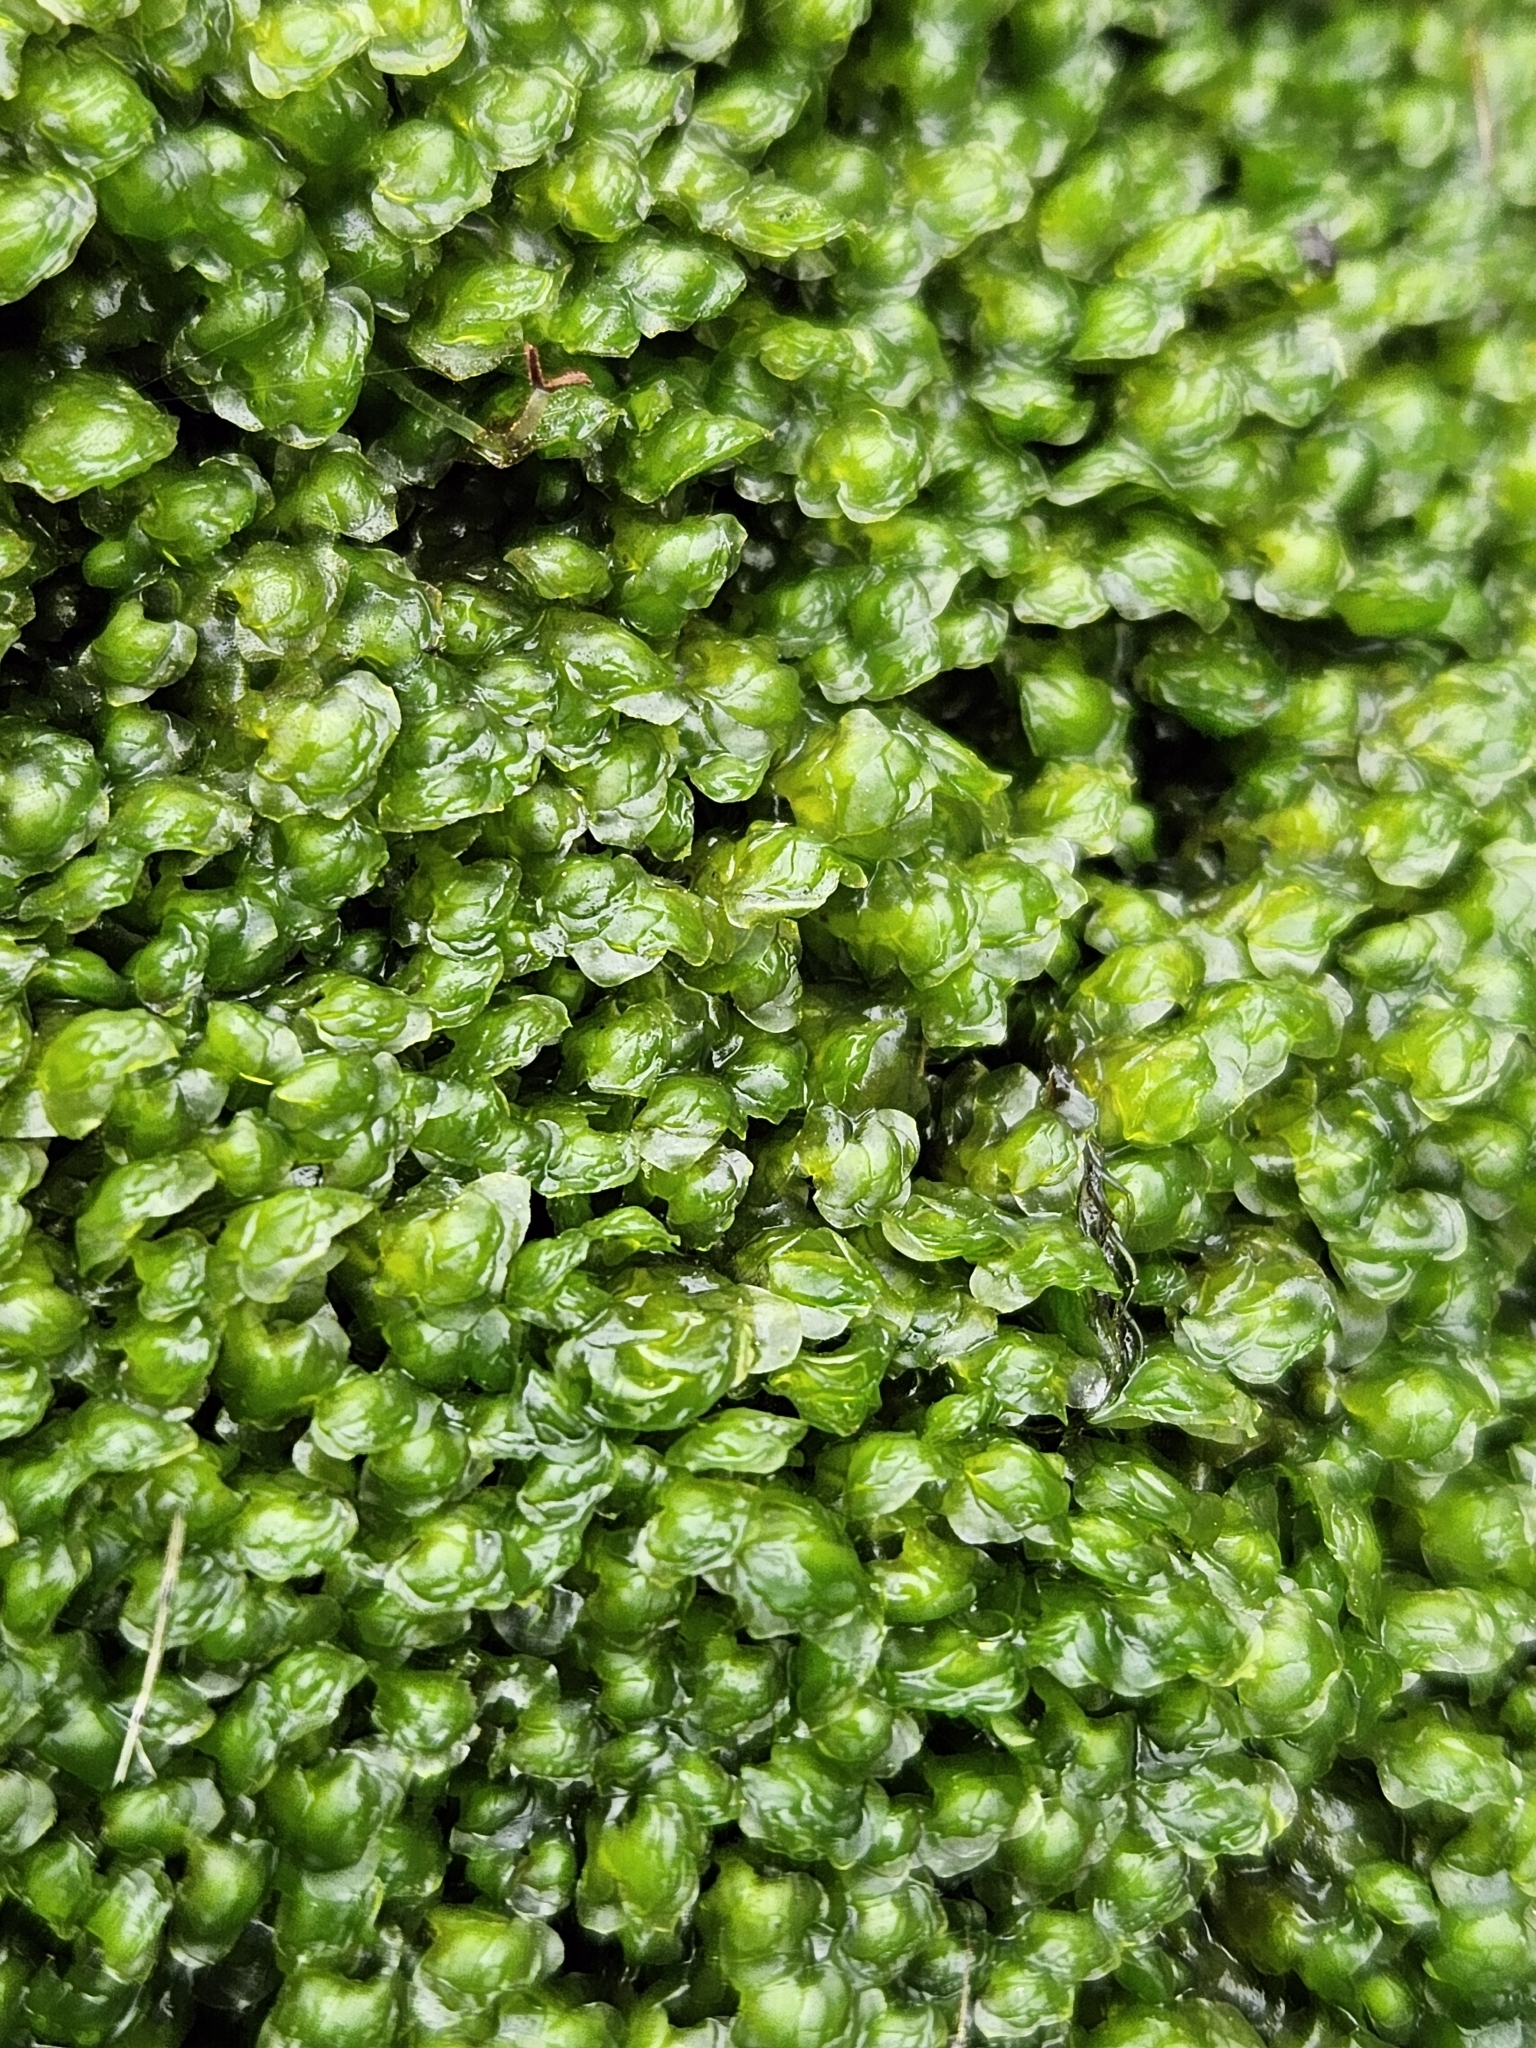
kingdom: Plantae
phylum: Marchantiophyta
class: Jungermanniopsida
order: Jungermanniales
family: Scapaniaceae
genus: Scapania
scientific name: Scapania undulata
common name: Water earwort
